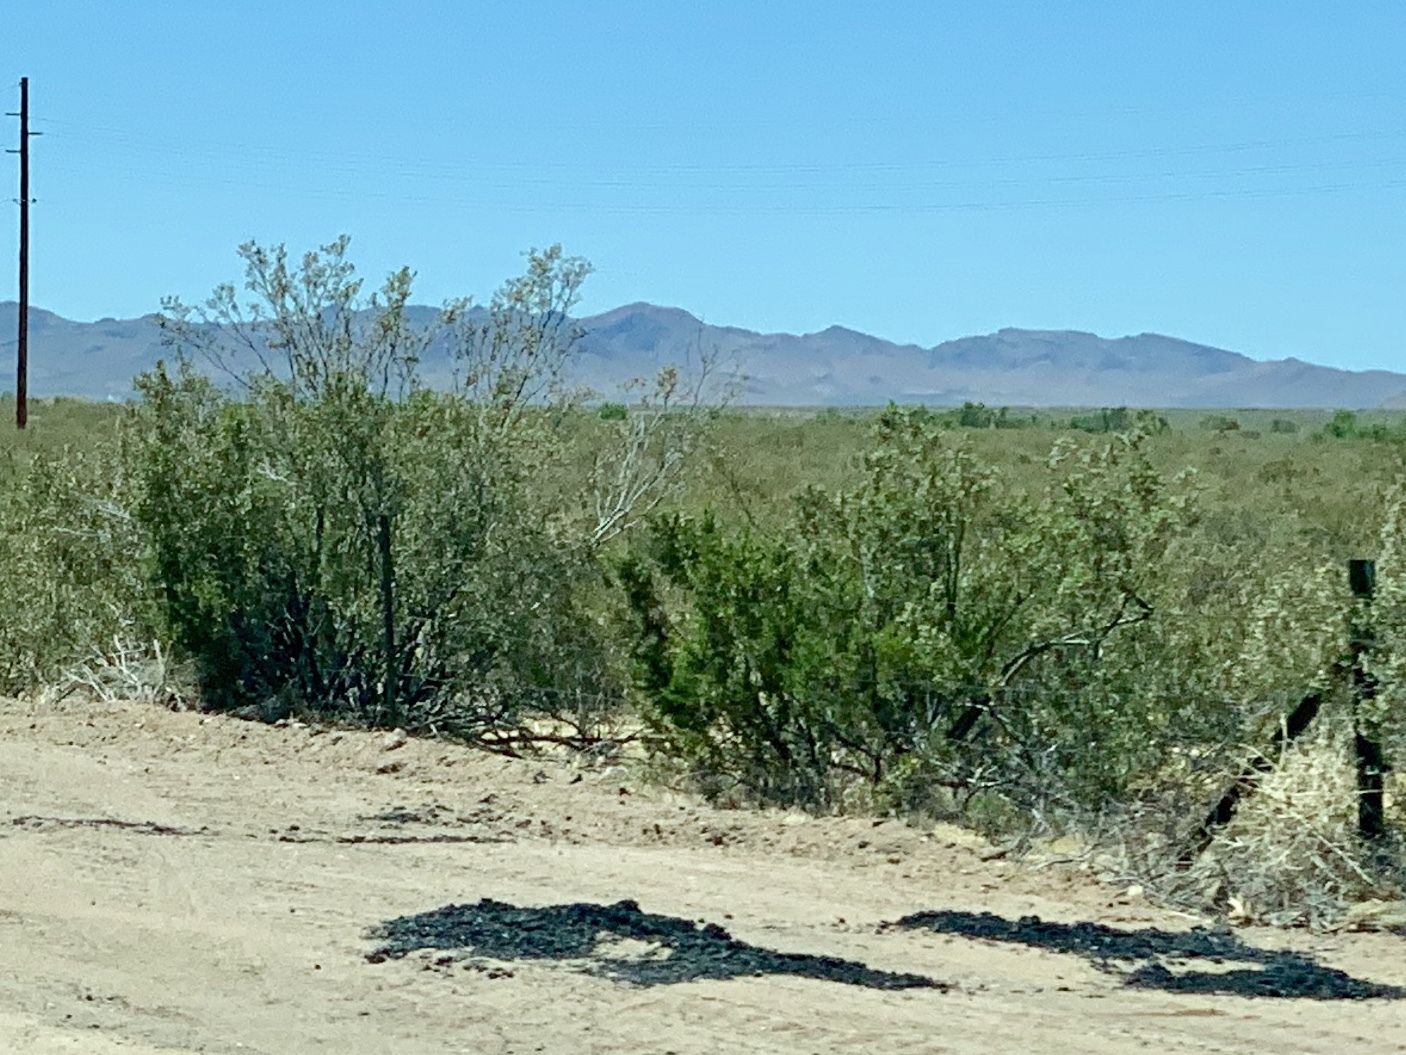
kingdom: Plantae
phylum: Tracheophyta
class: Magnoliopsida
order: Zygophyllales
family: Zygophyllaceae
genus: Larrea
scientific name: Larrea tridentata
